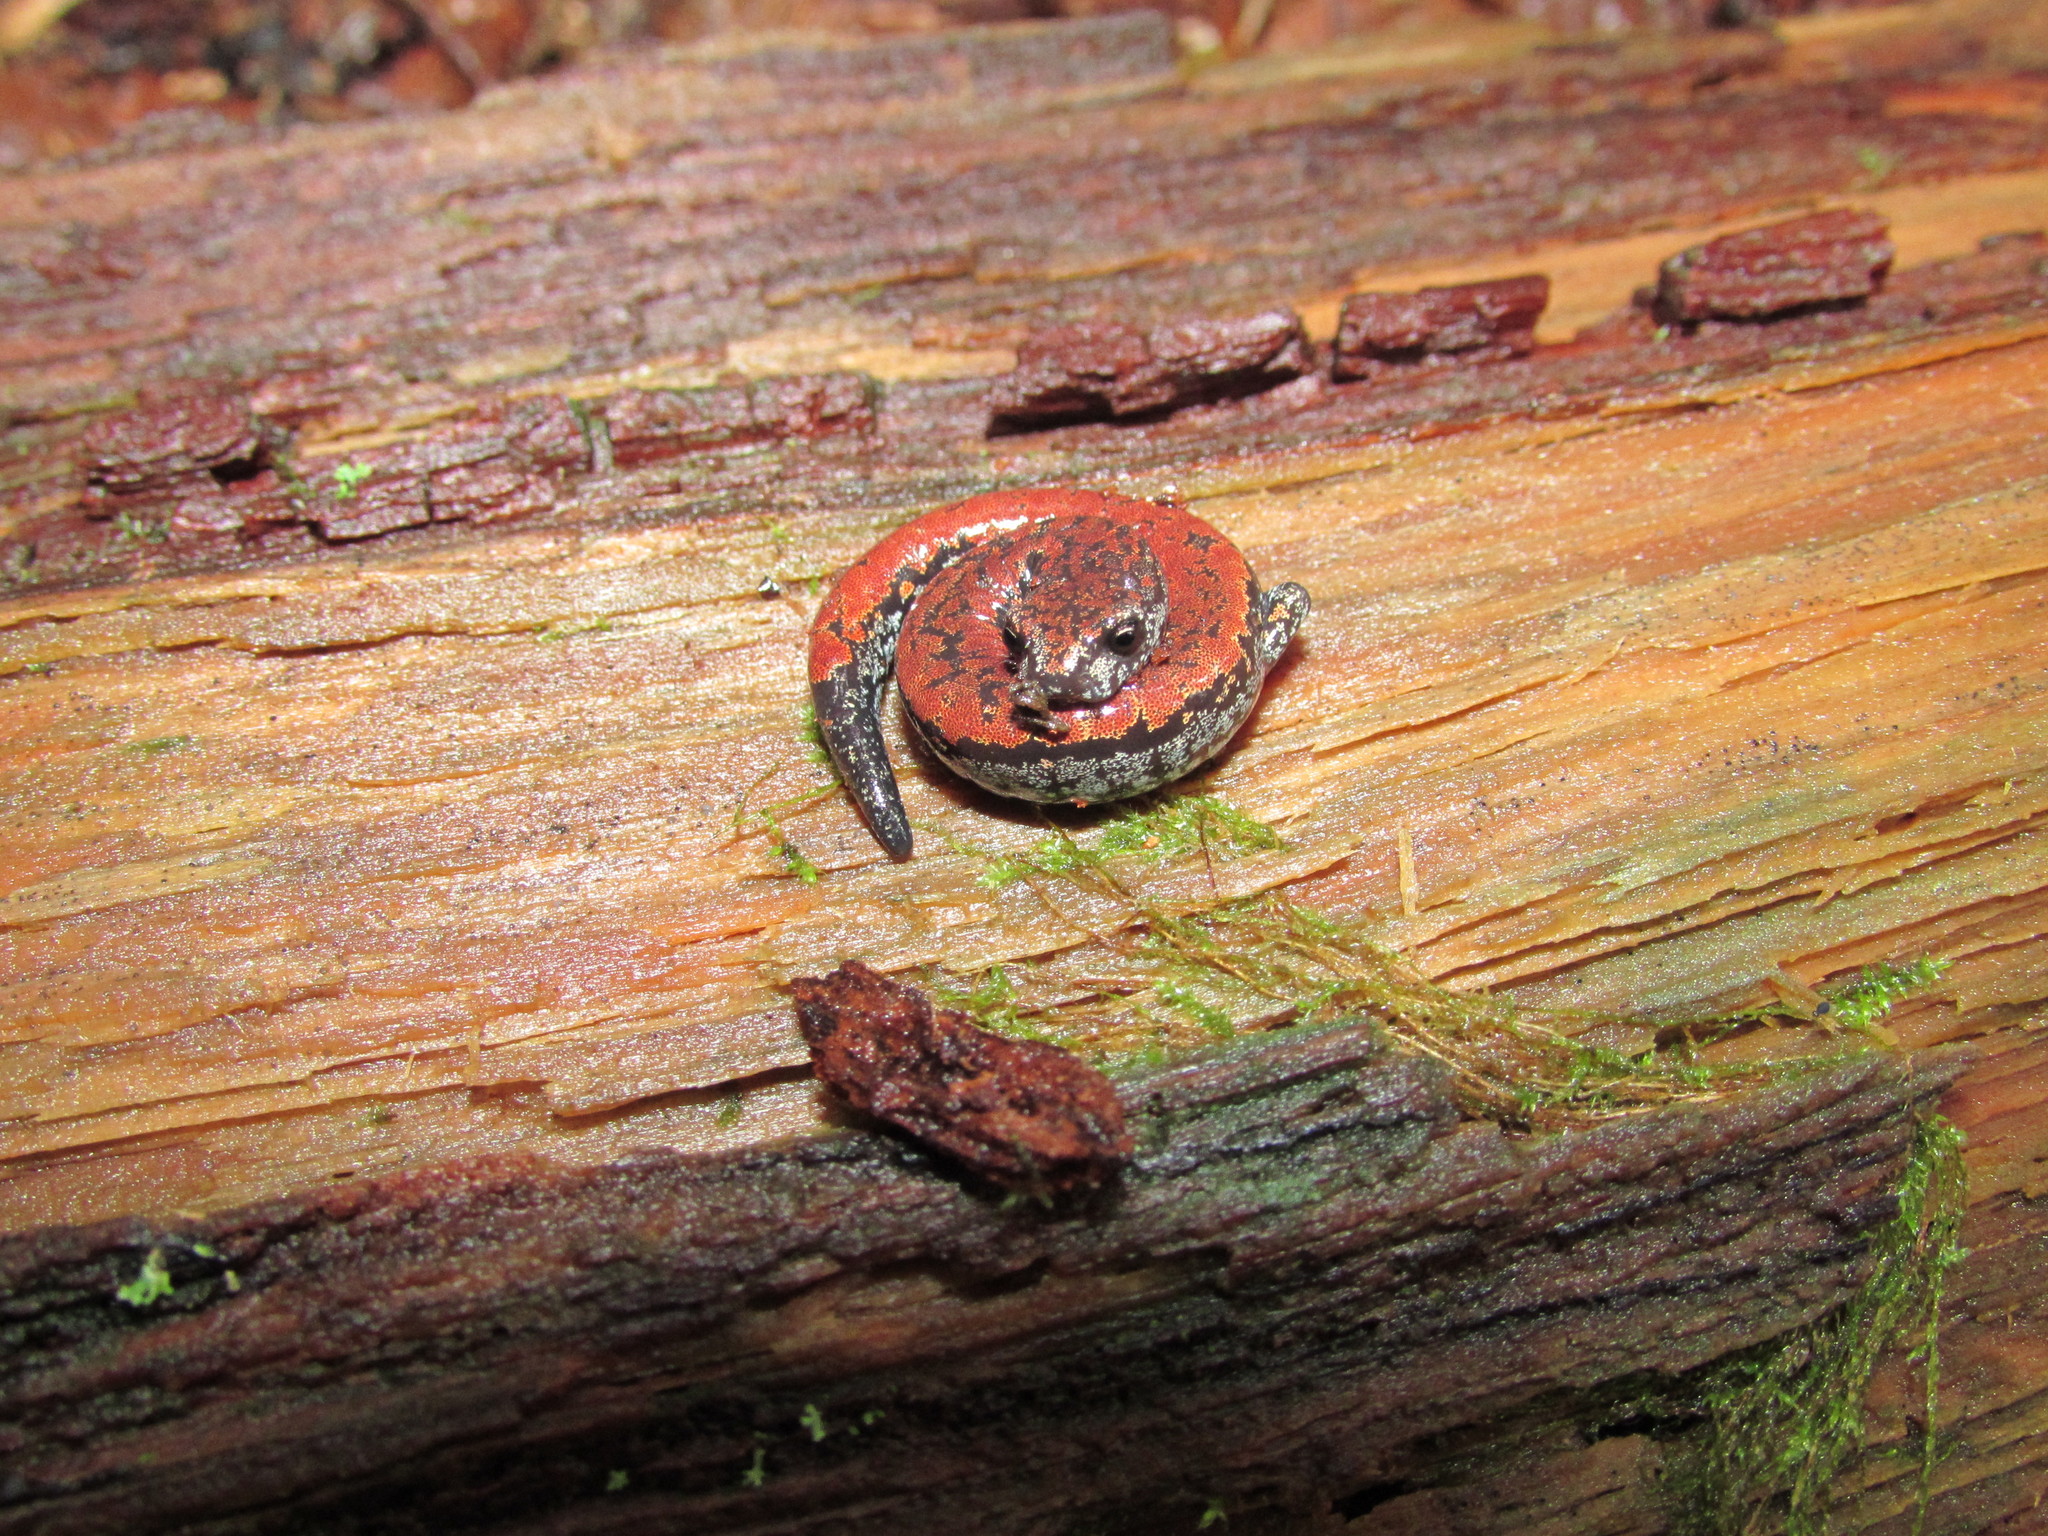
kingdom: Animalia
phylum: Chordata
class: Amphibia
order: Caudata
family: Plethodontidae
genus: Batrachoseps
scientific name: Batrachoseps wrighti
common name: Oregon slender salamander
